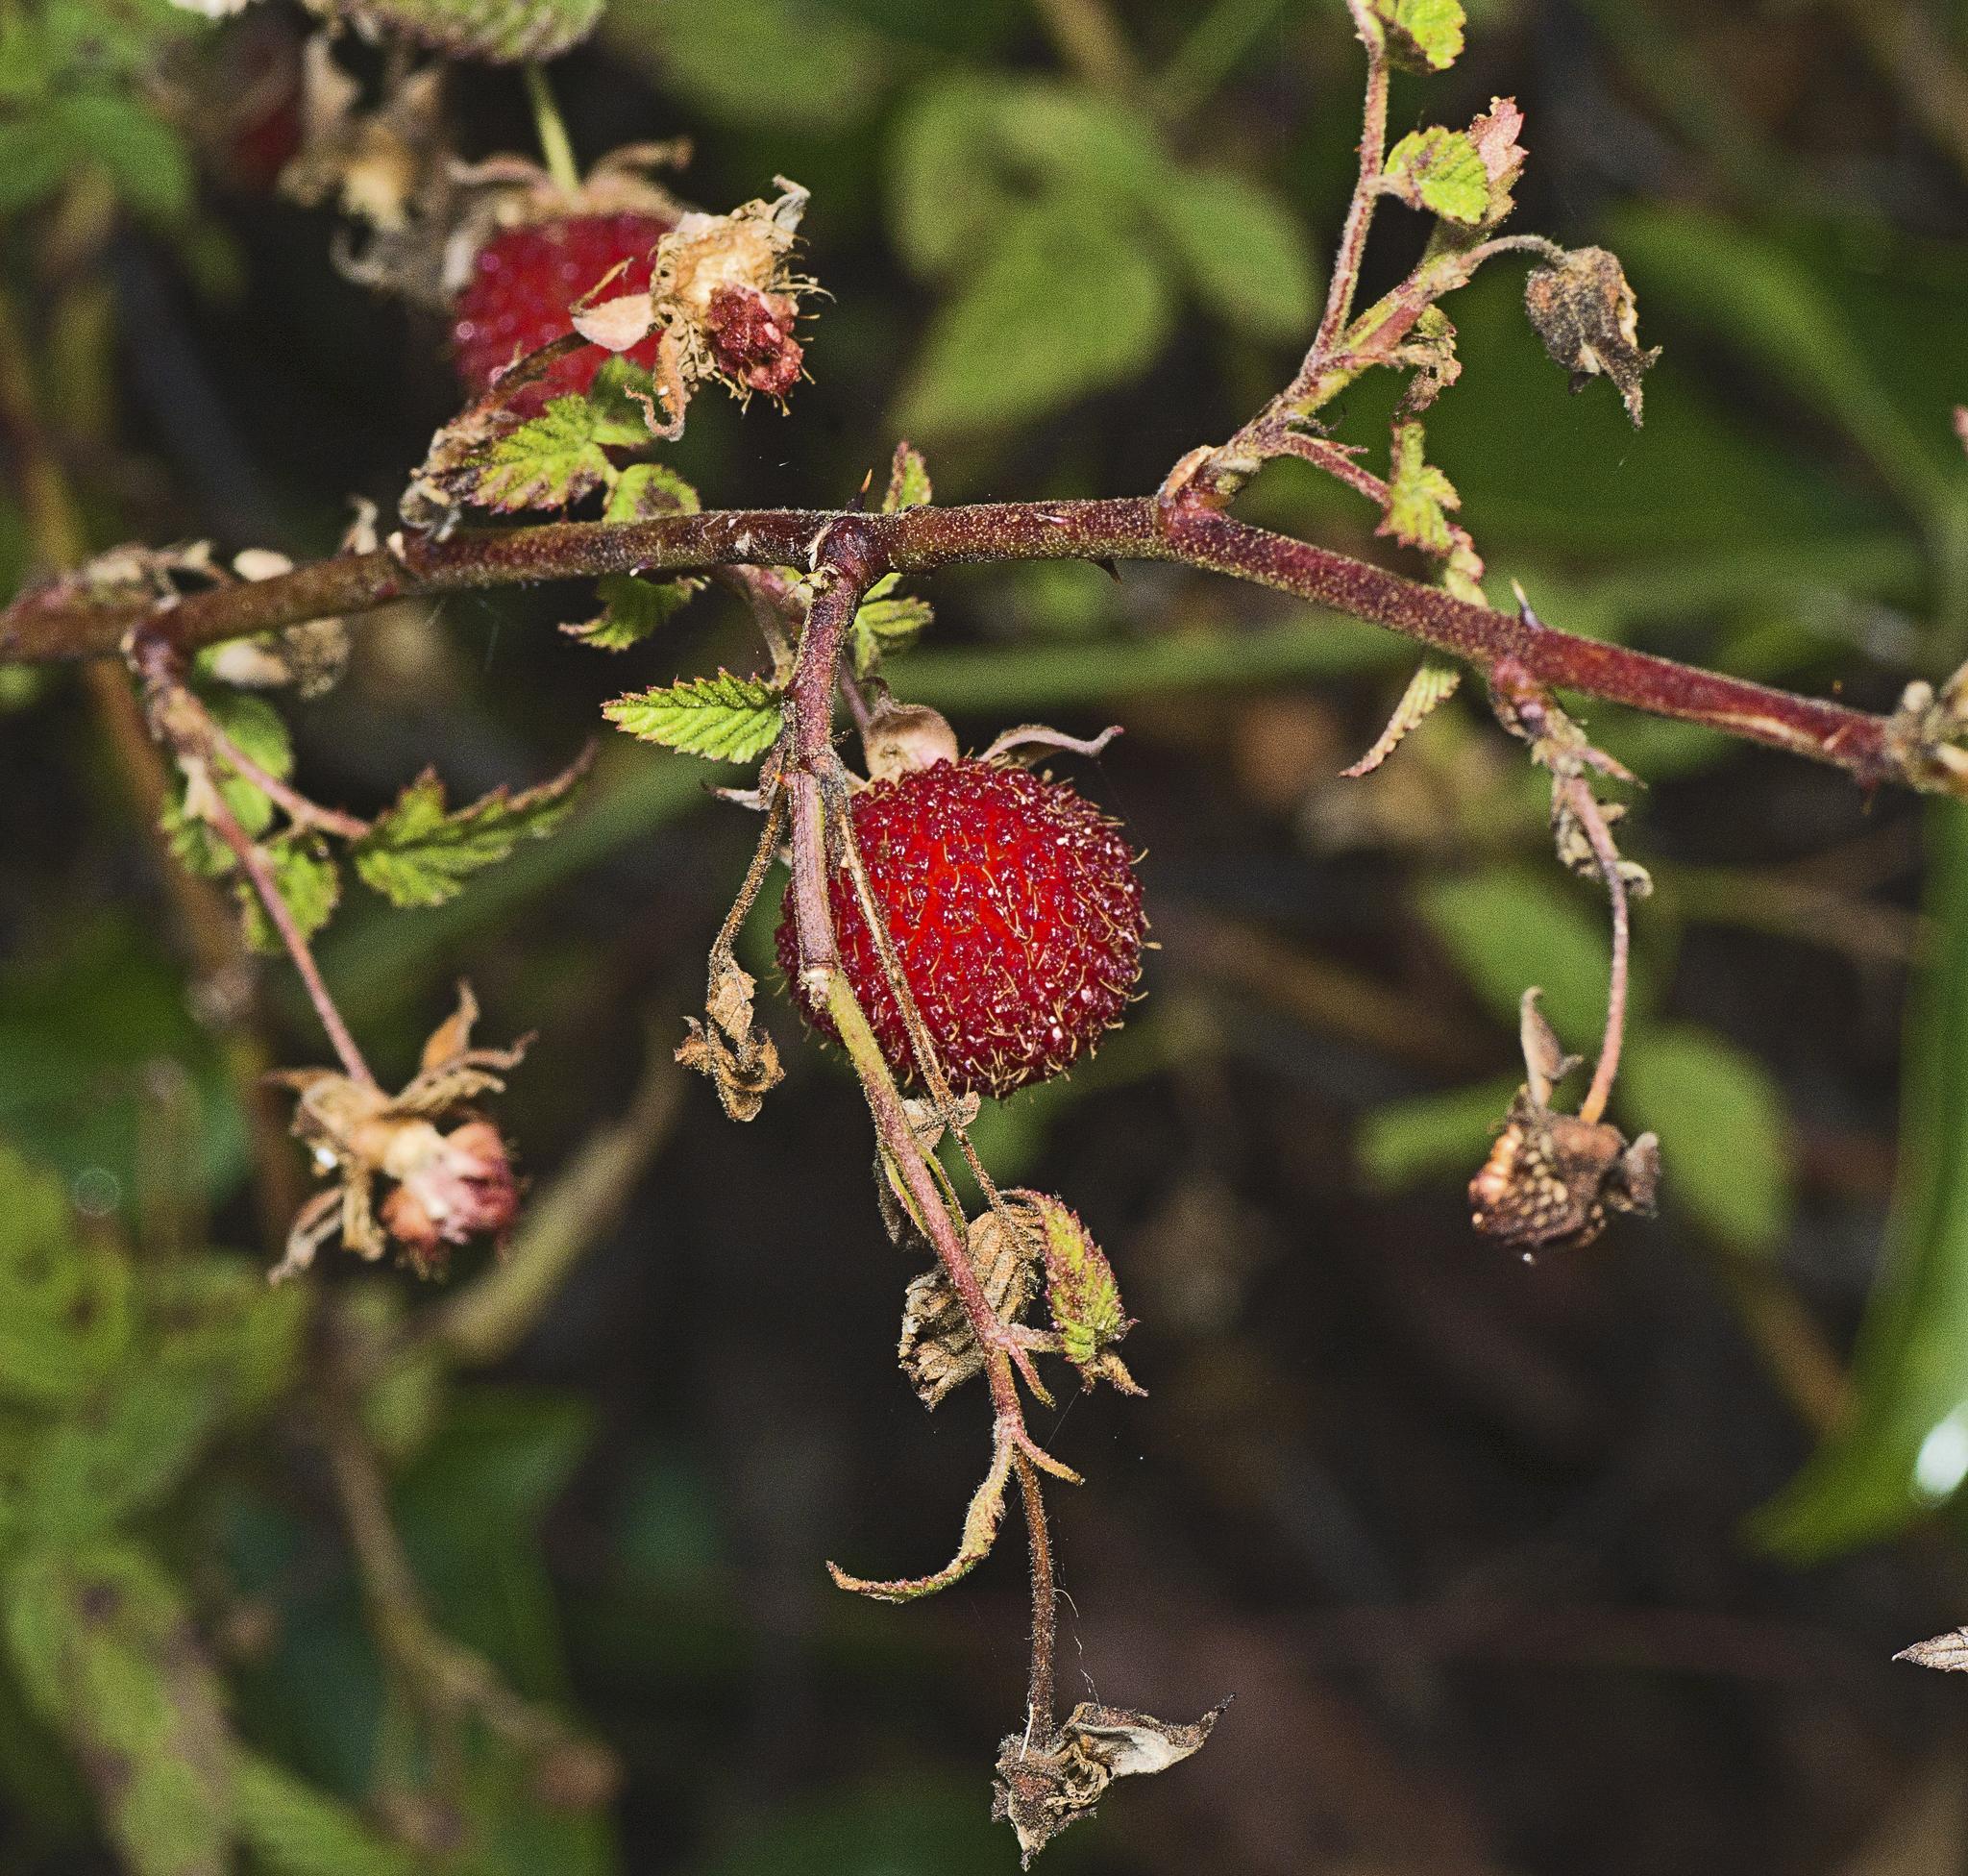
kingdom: Plantae
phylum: Tracheophyta
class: Magnoliopsida
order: Rosales
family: Rosaceae
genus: Rubus
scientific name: Rubus rosifolius
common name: Roseleaf raspberry
